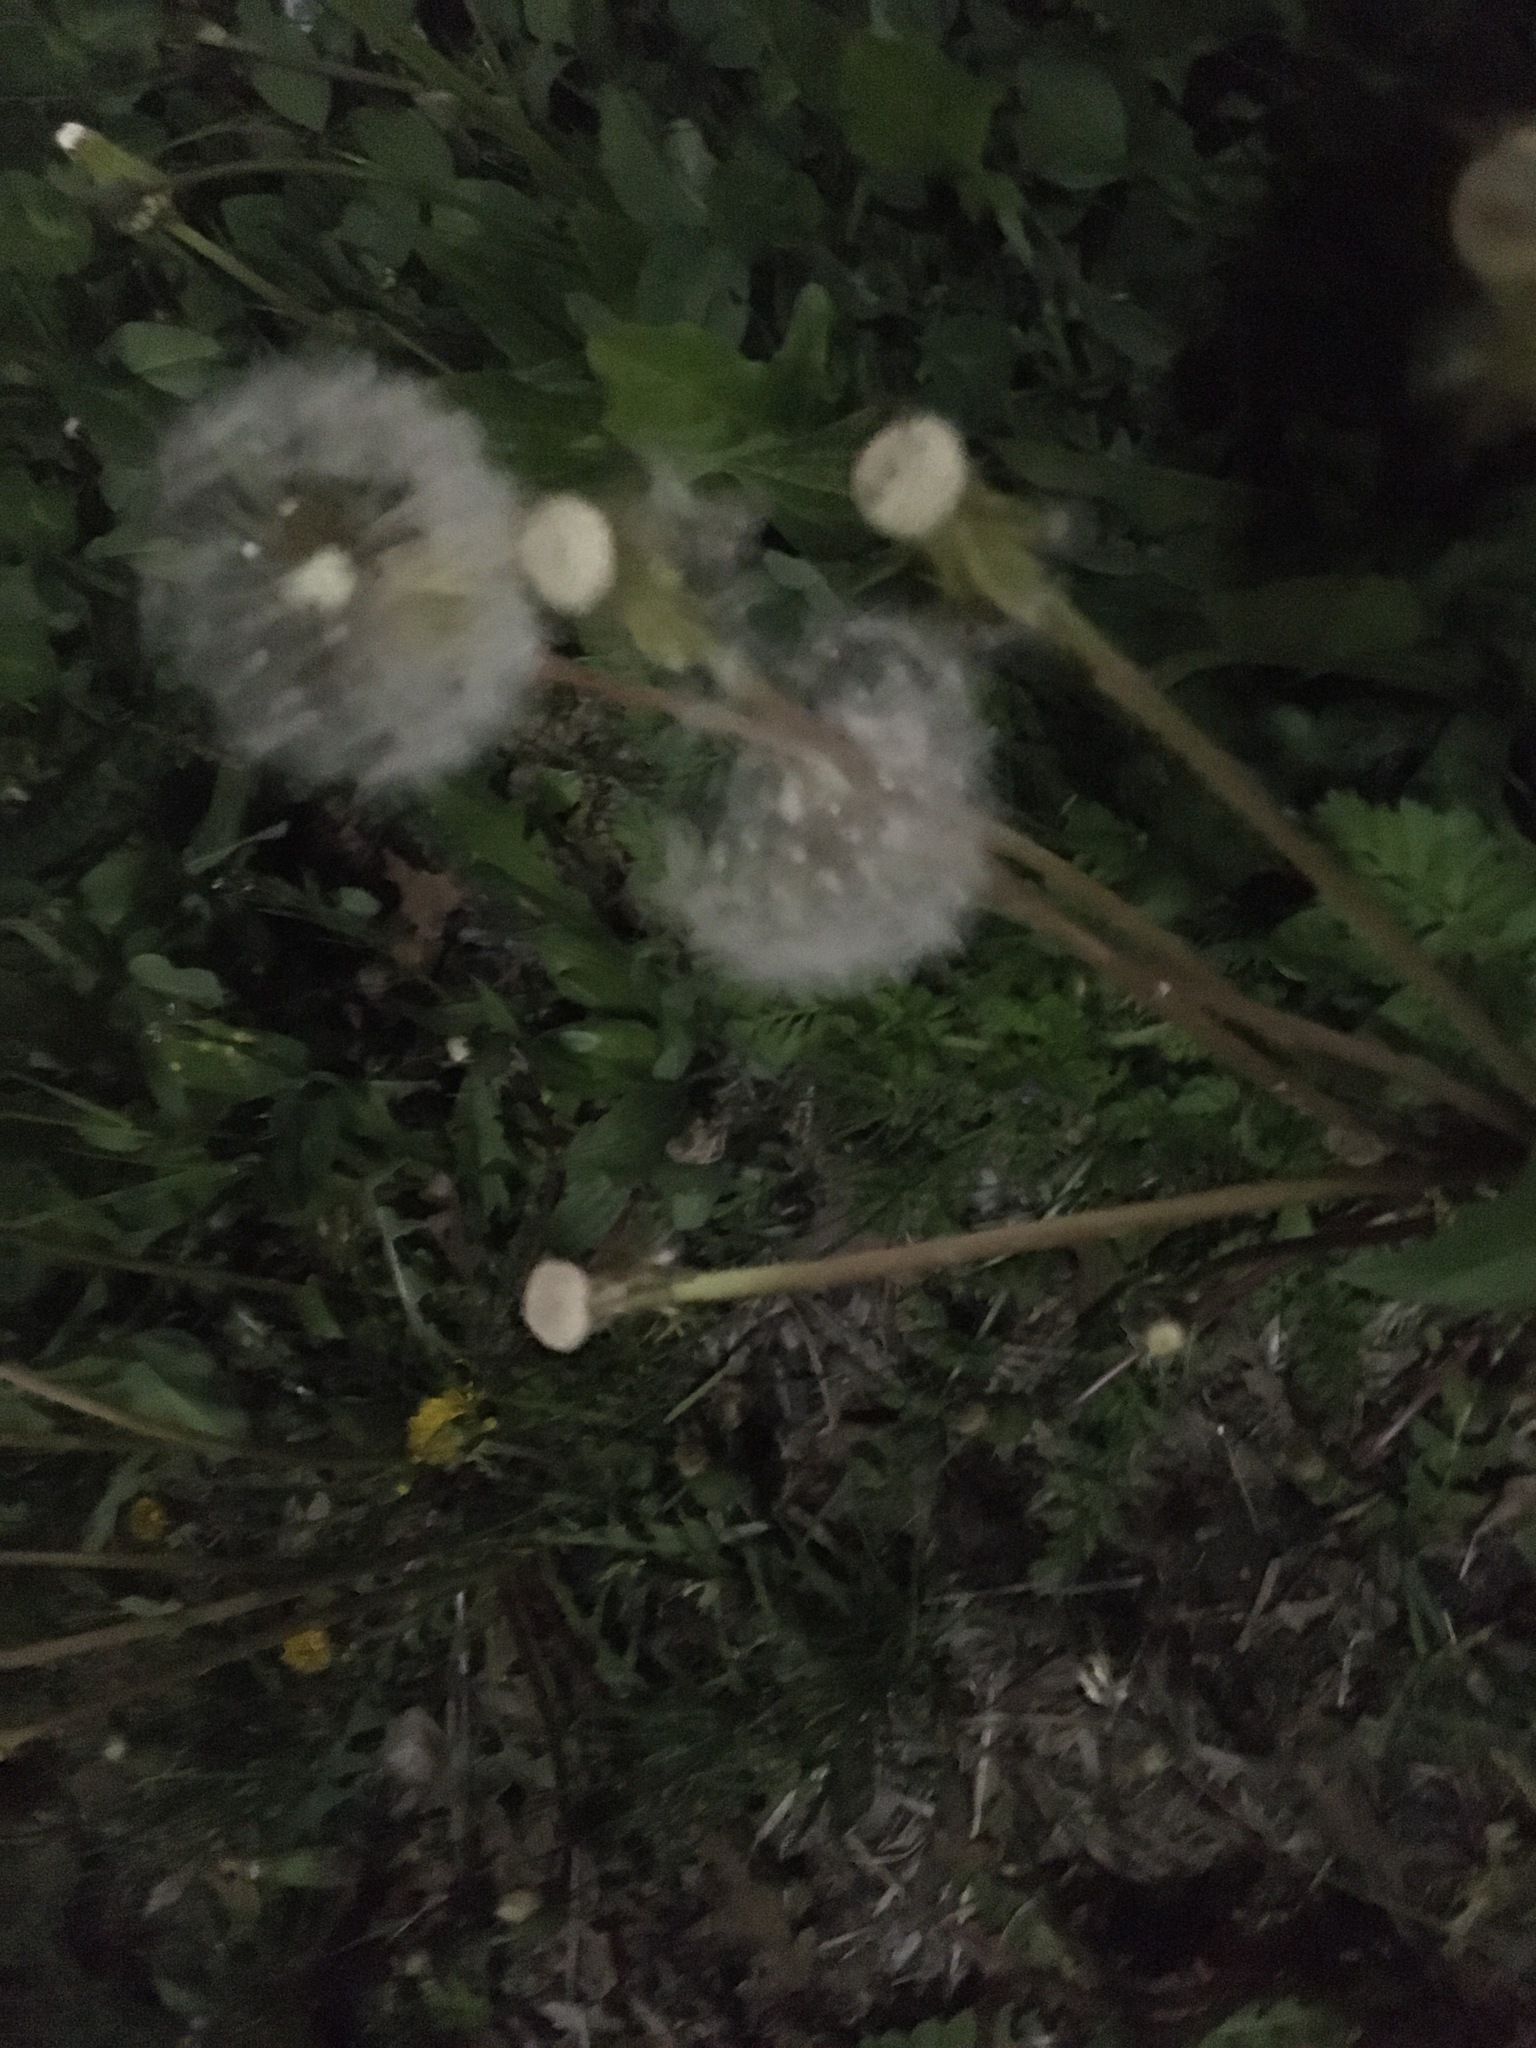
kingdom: Plantae
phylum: Tracheophyta
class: Magnoliopsida
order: Asterales
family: Asteraceae
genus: Taraxacum
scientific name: Taraxacum officinale
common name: Common dandelion
